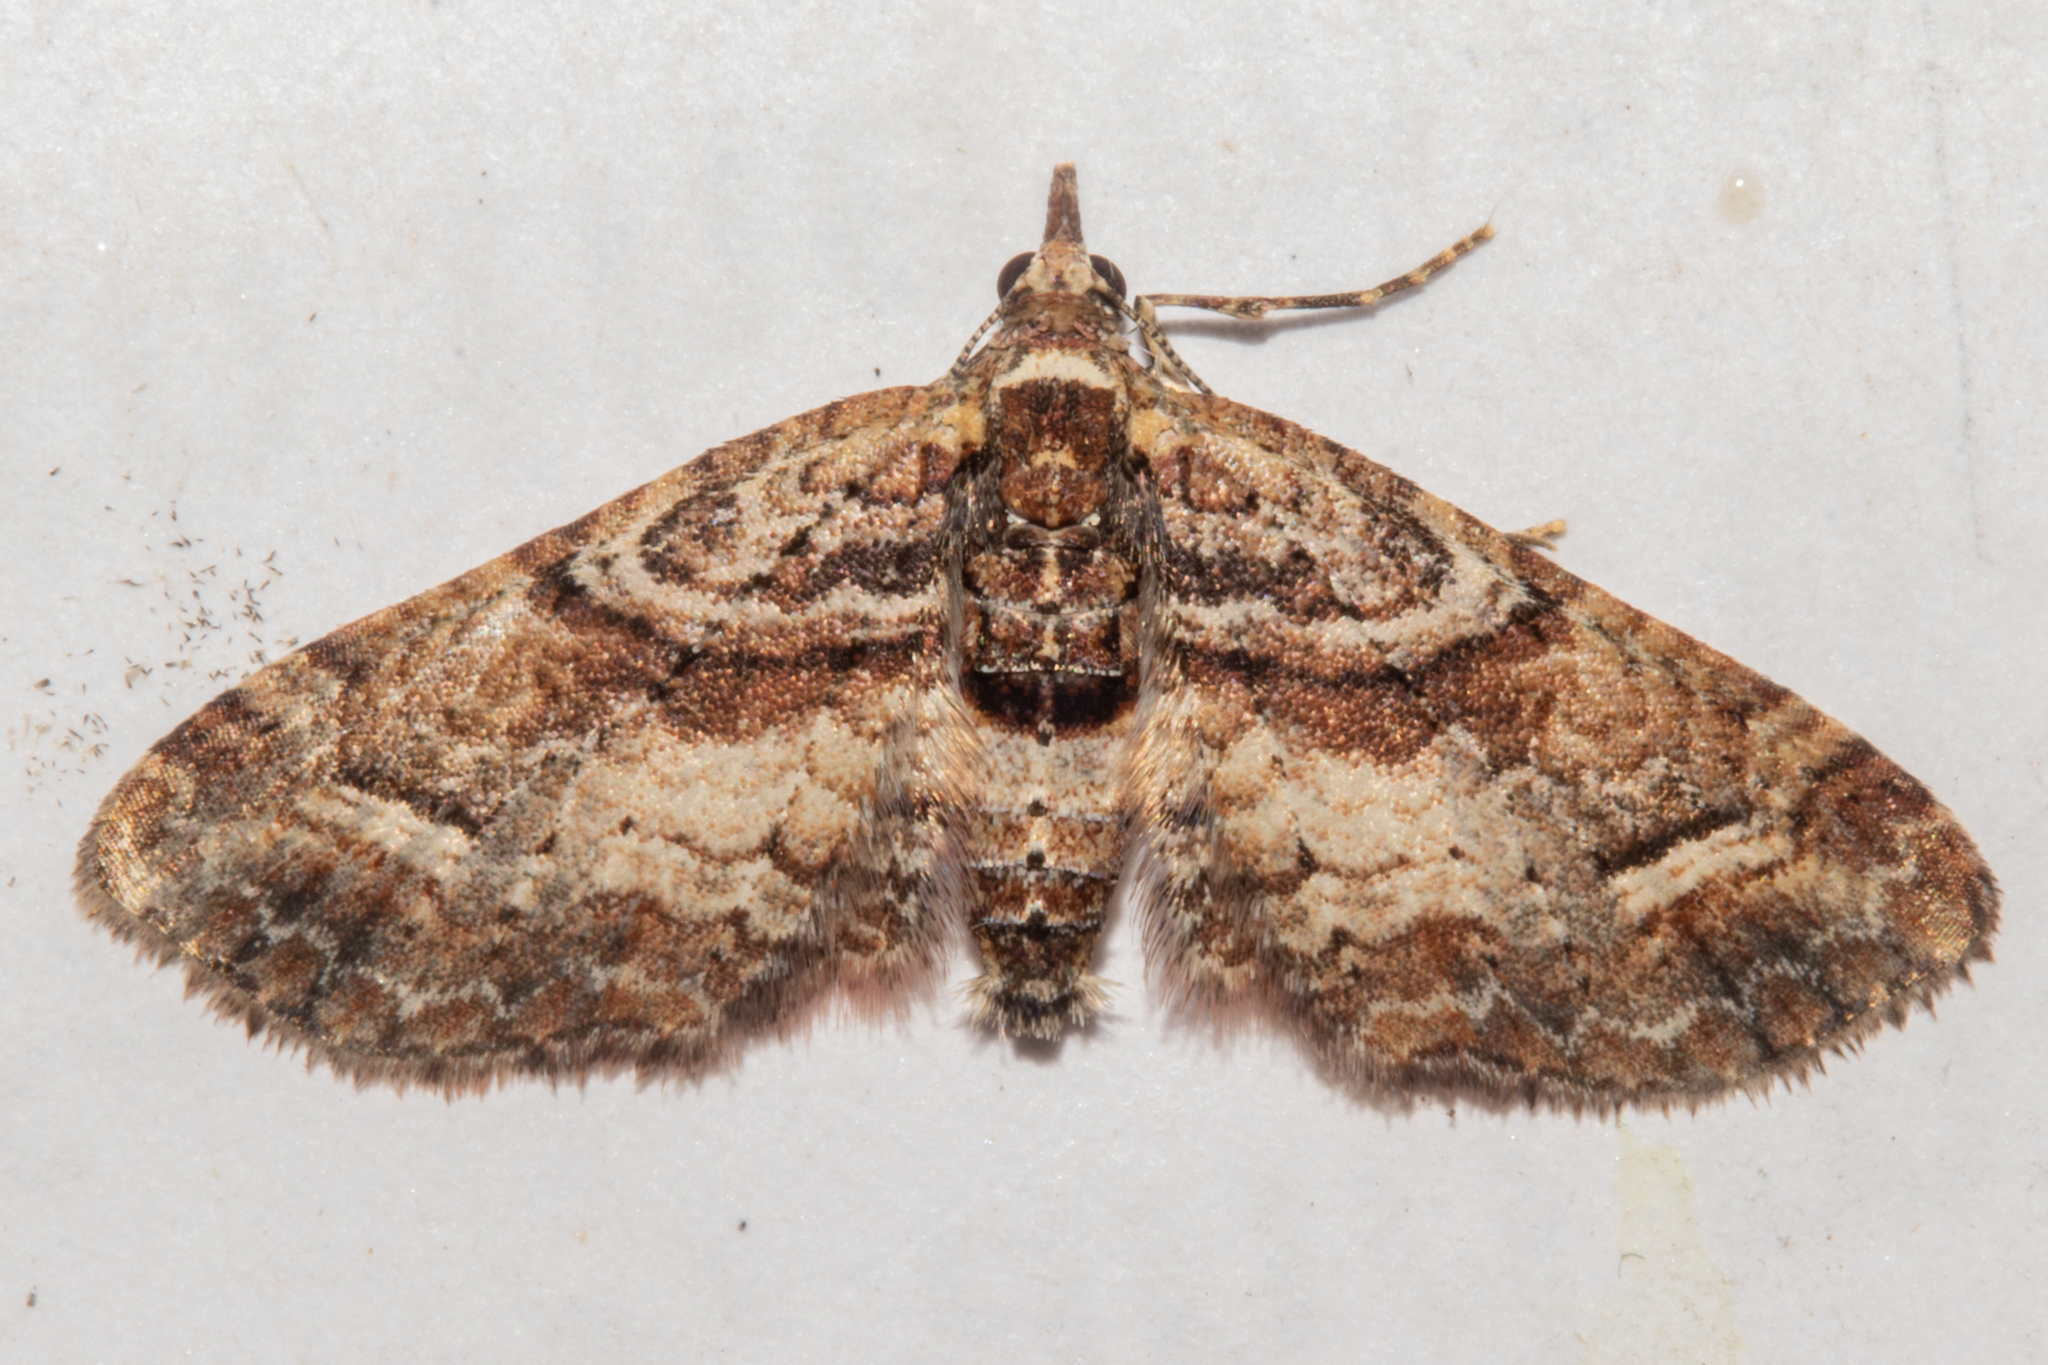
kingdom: Animalia
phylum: Arthropoda
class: Insecta
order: Lepidoptera
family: Geometridae
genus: Idaea
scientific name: Idaea mutanda
